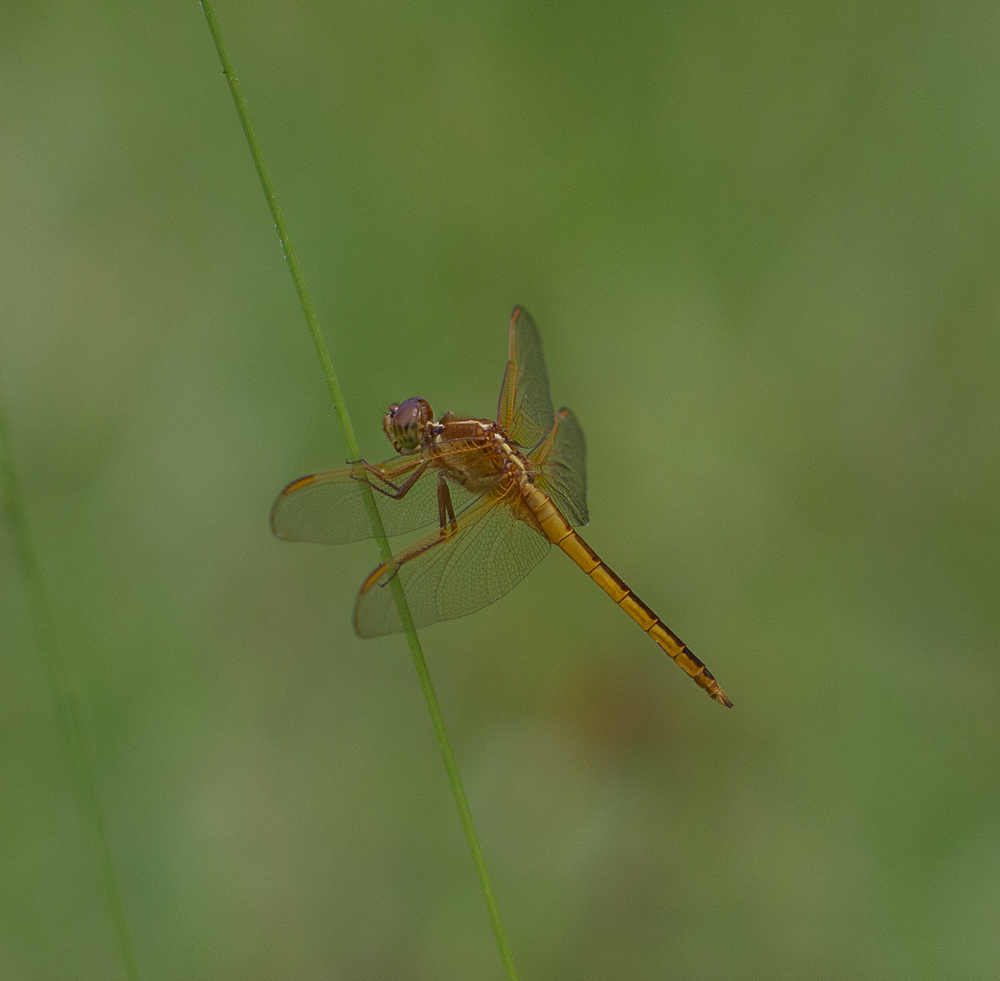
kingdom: Animalia
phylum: Arthropoda
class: Insecta
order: Odonata
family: Libellulidae
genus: Libellula
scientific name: Libellula needhami
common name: Needham's skimmer
